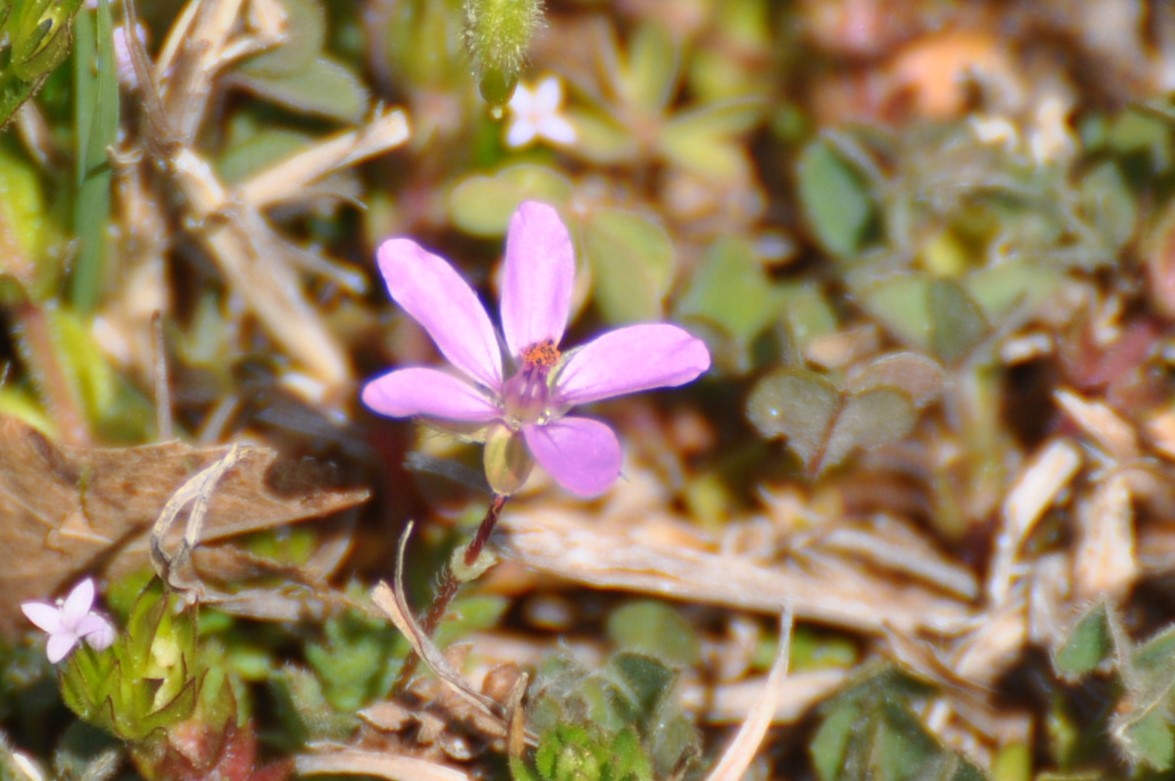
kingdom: Plantae
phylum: Tracheophyta
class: Magnoliopsida
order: Geraniales
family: Geraniaceae
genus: Erodium
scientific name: Erodium cicutarium
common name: Common stork's-bill
